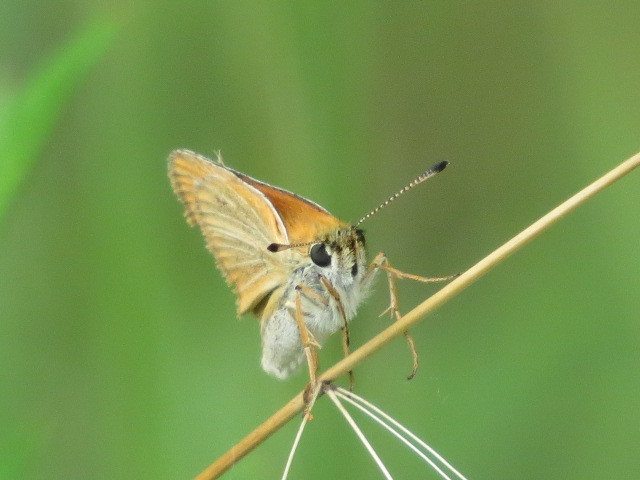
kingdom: Animalia
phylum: Arthropoda
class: Insecta
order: Lepidoptera
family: Hesperiidae
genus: Thymelicus
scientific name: Thymelicus lineola
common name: Essex skipper
